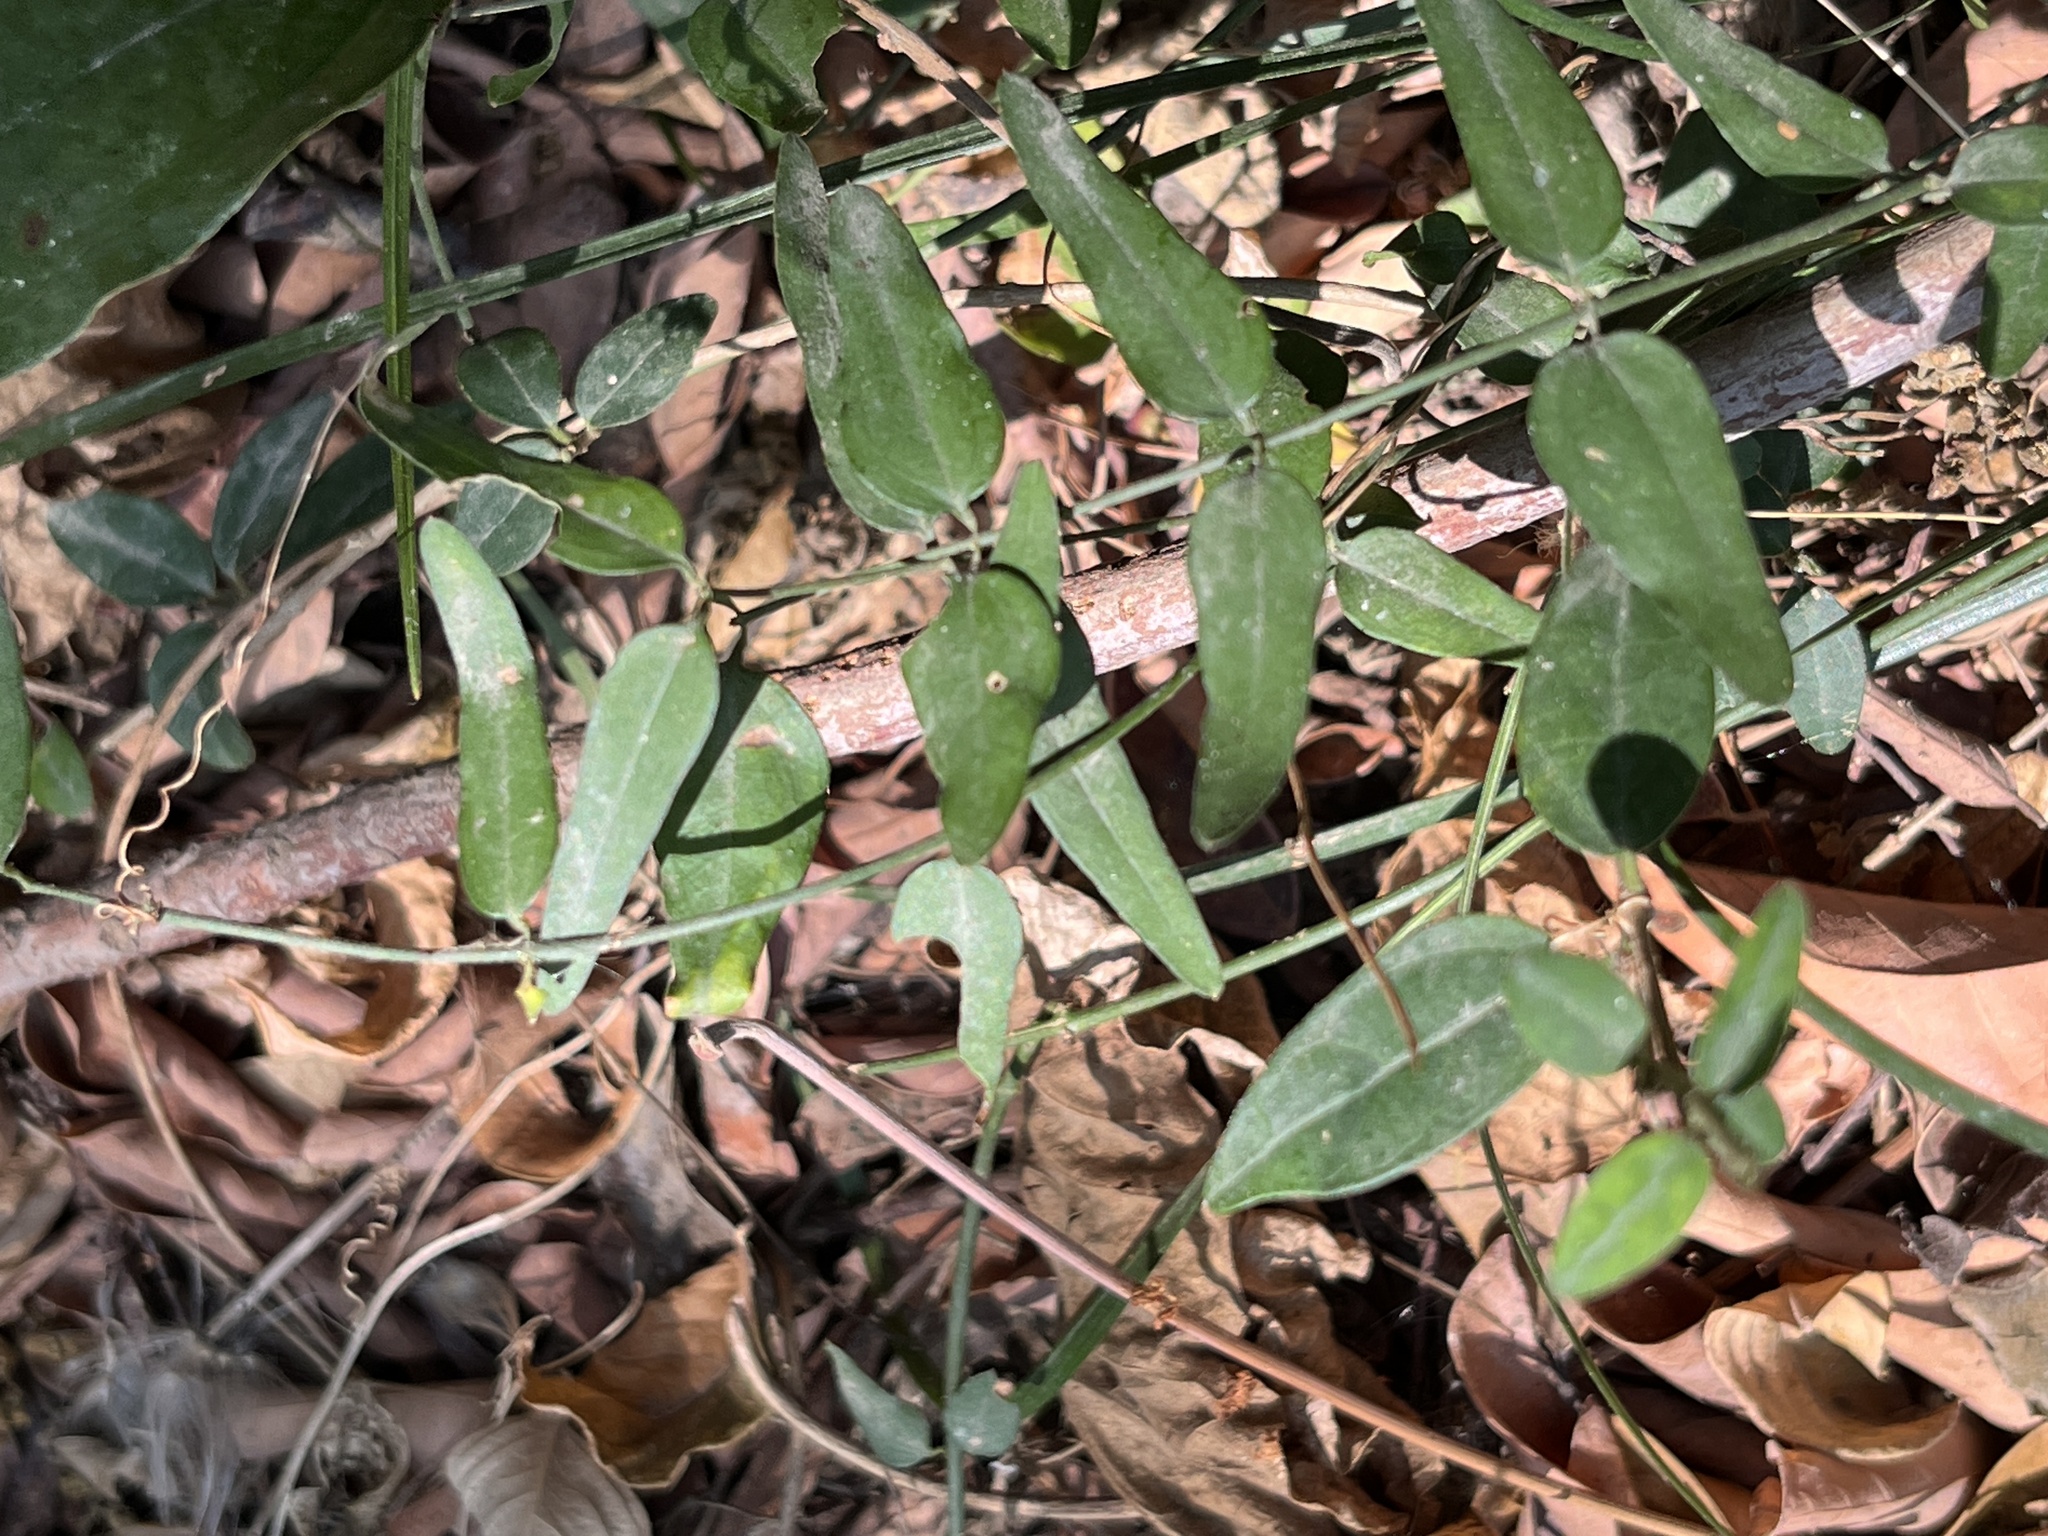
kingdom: Plantae
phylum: Tracheophyta
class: Magnoliopsida
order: Lamiales
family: Oleaceae
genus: Jasminum
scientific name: Jasminum nervosum
